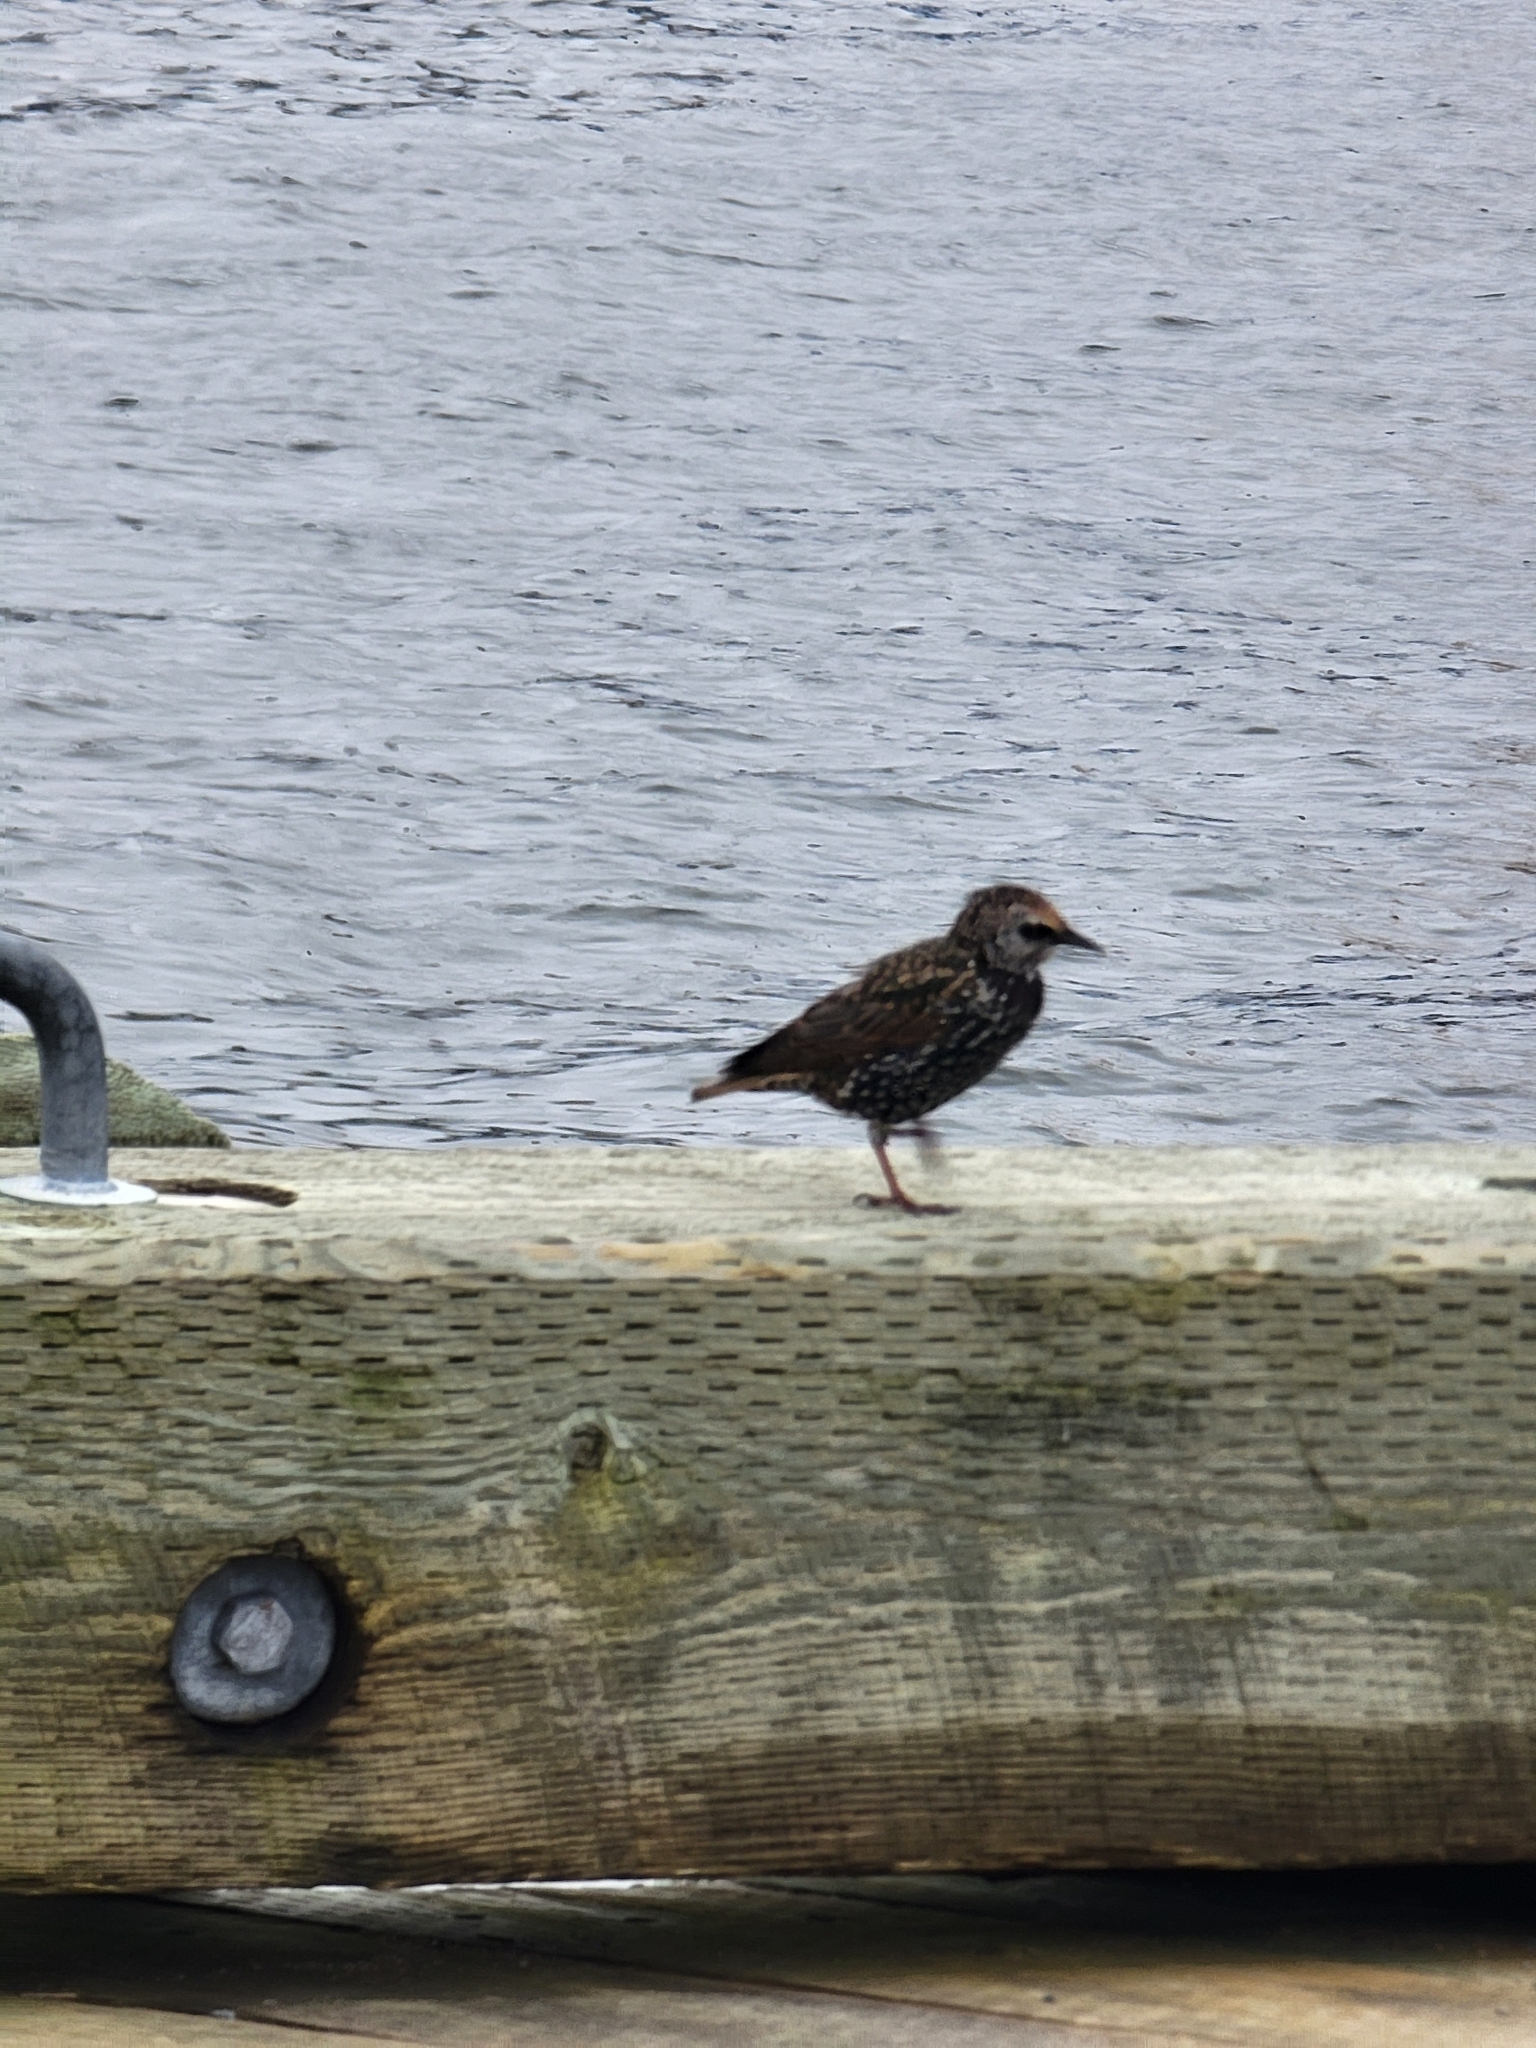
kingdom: Animalia
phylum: Chordata
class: Aves
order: Passeriformes
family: Sturnidae
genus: Sturnus
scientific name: Sturnus vulgaris
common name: Common starling
